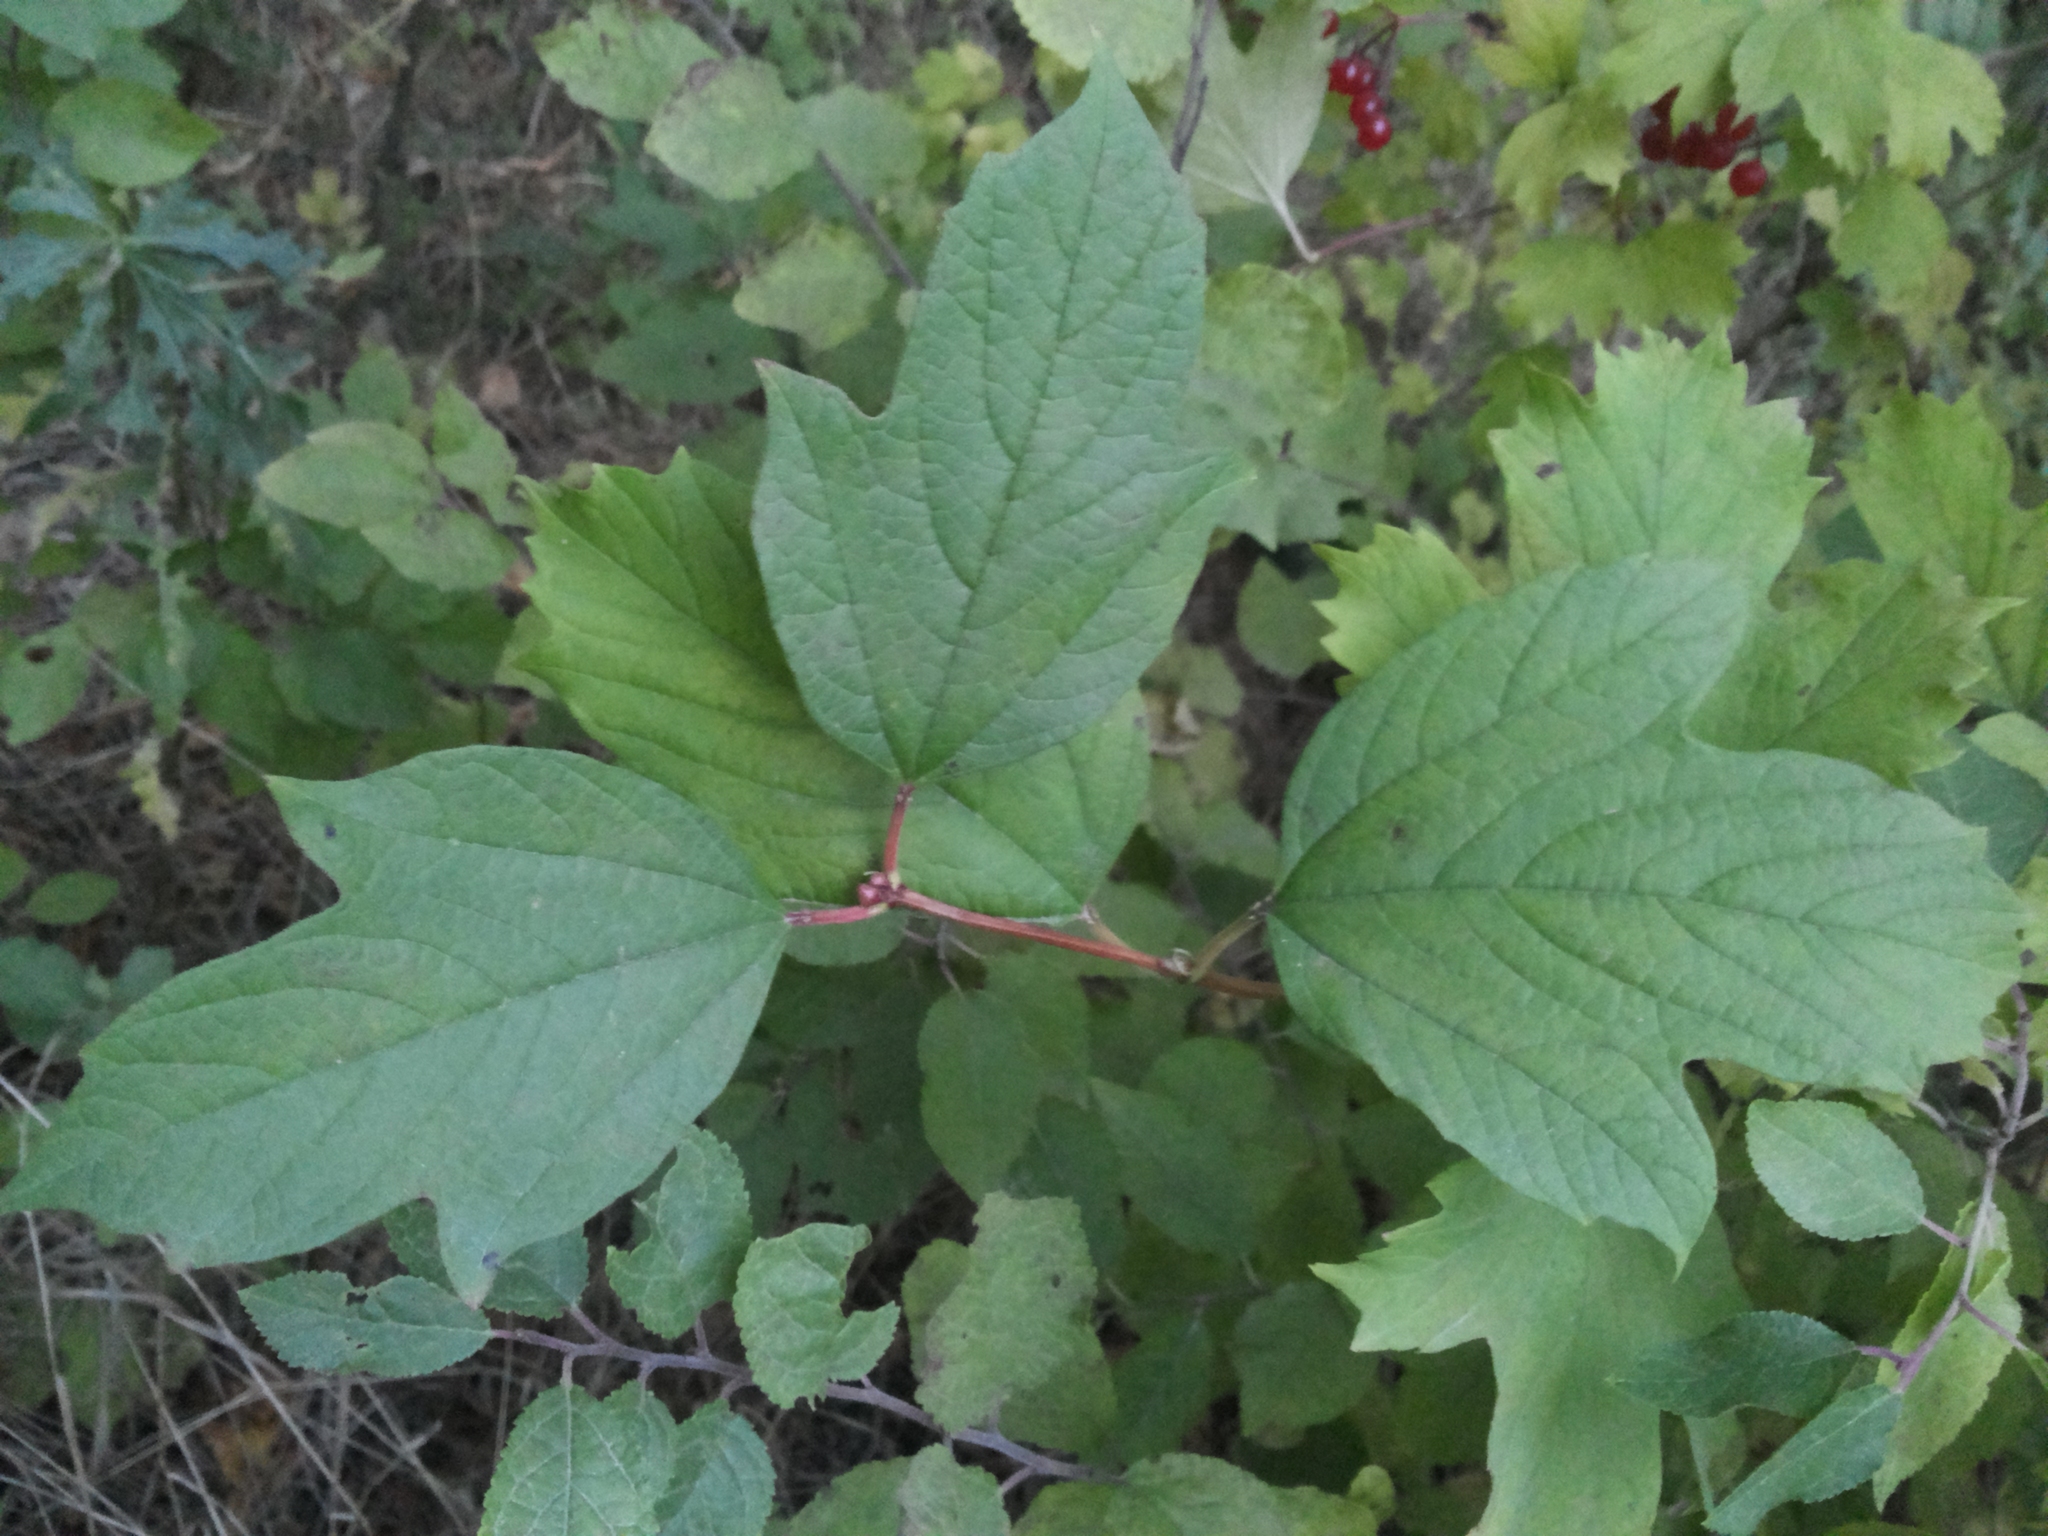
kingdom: Plantae
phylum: Tracheophyta
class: Magnoliopsida
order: Dipsacales
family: Viburnaceae
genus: Viburnum
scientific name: Viburnum opulus
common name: Guelder-rose
